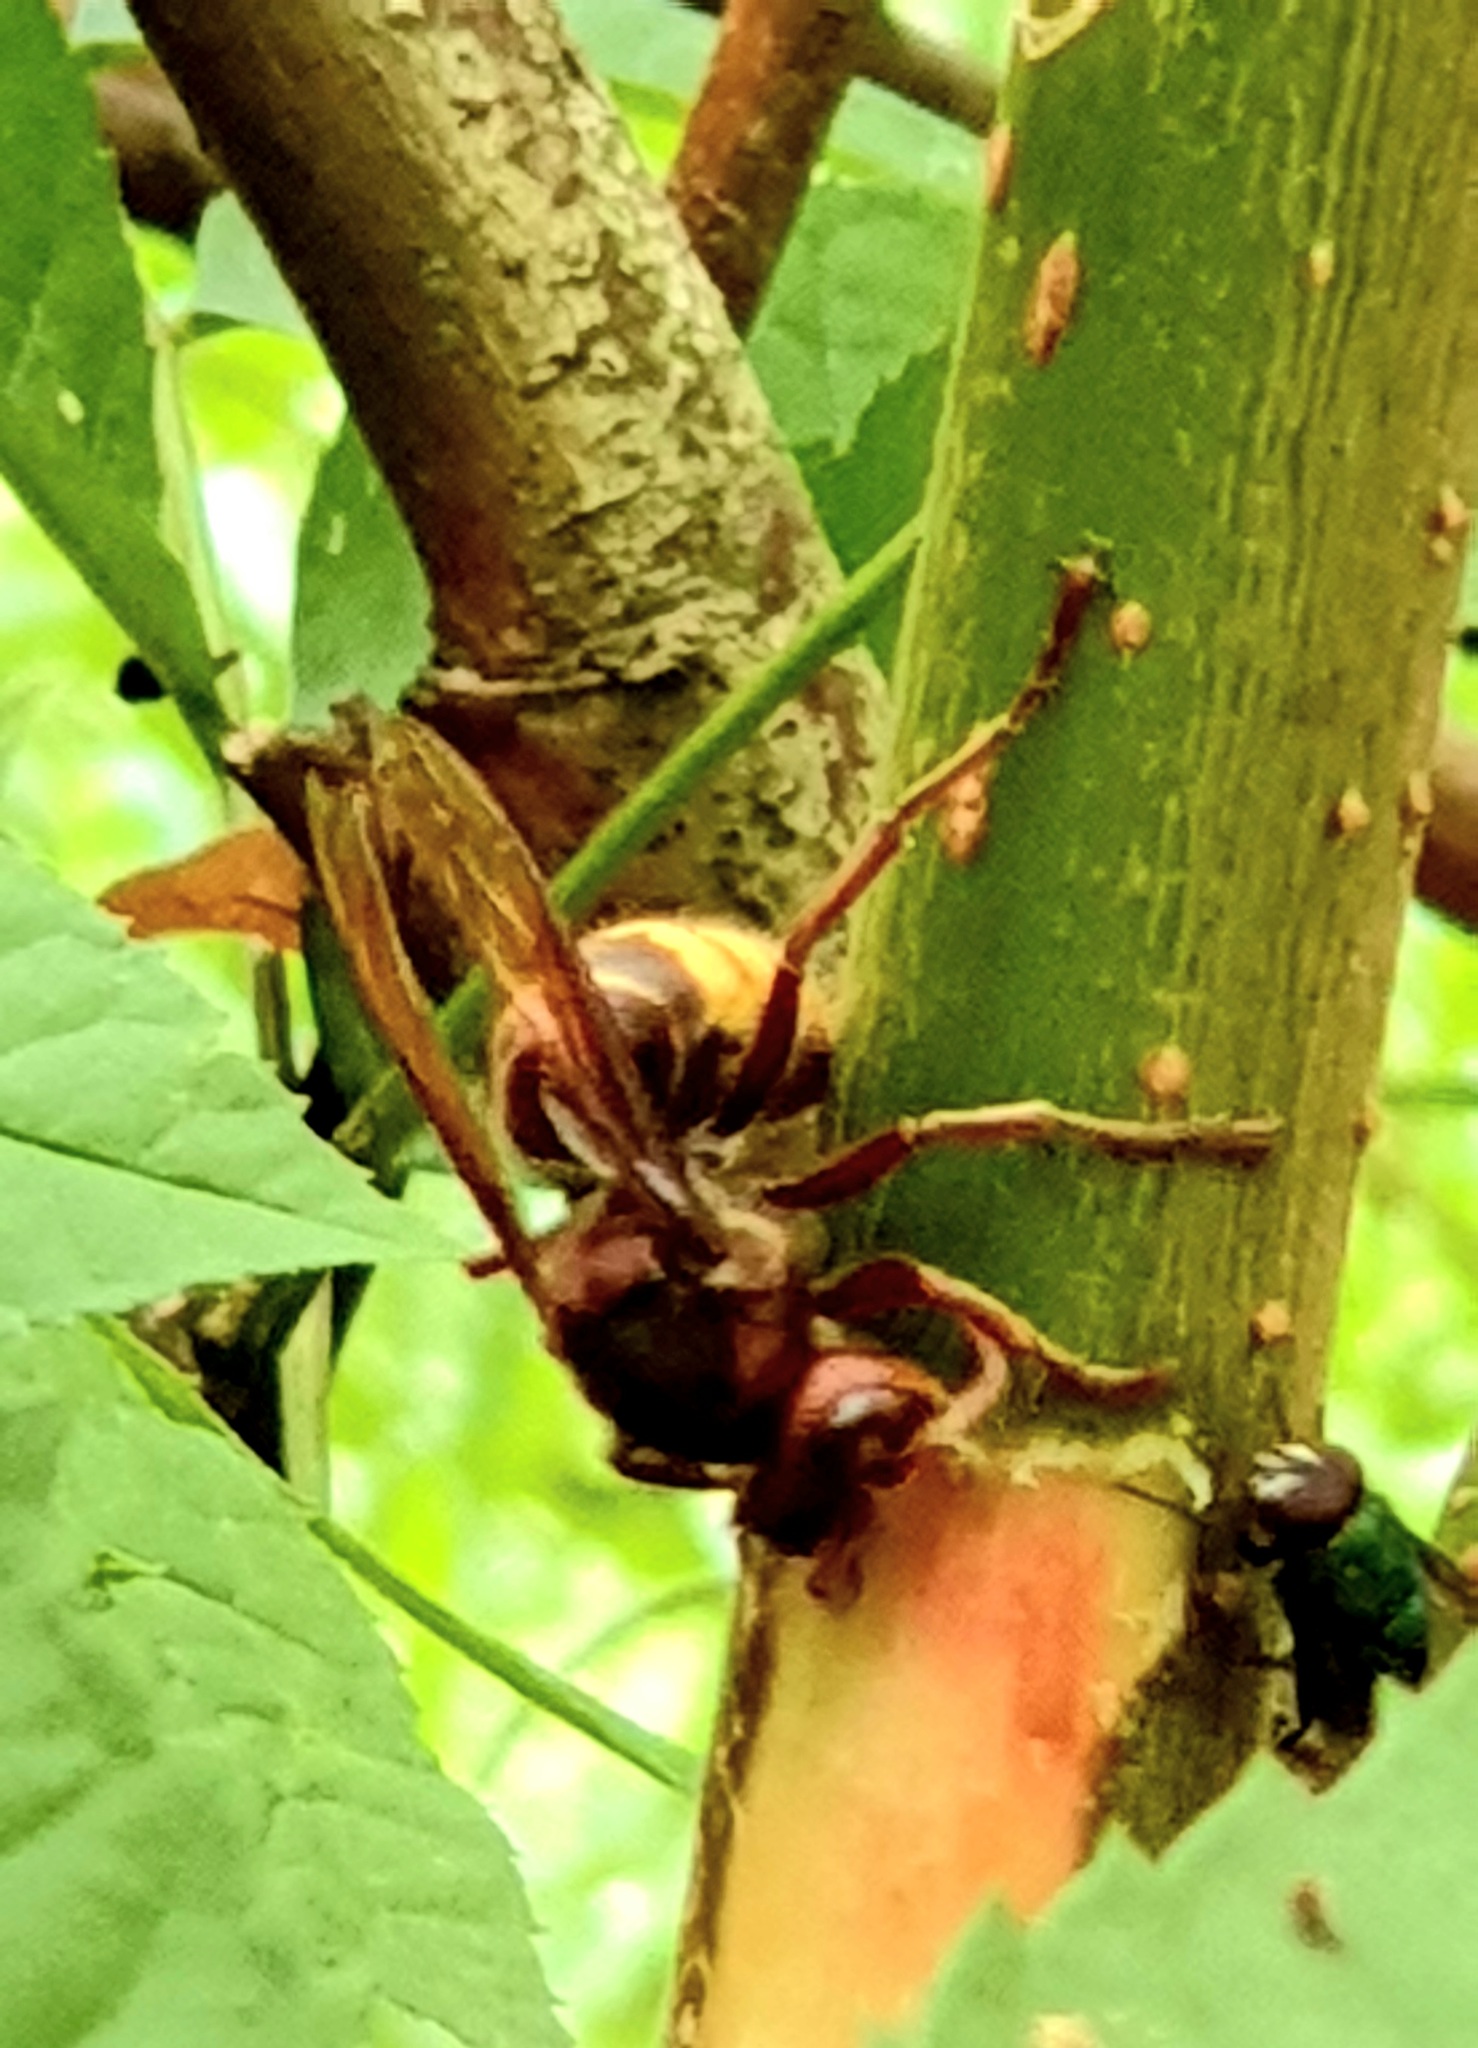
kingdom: Animalia
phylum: Arthropoda
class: Insecta
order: Hymenoptera
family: Vespidae
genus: Vespa
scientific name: Vespa crabro
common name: Hornet
